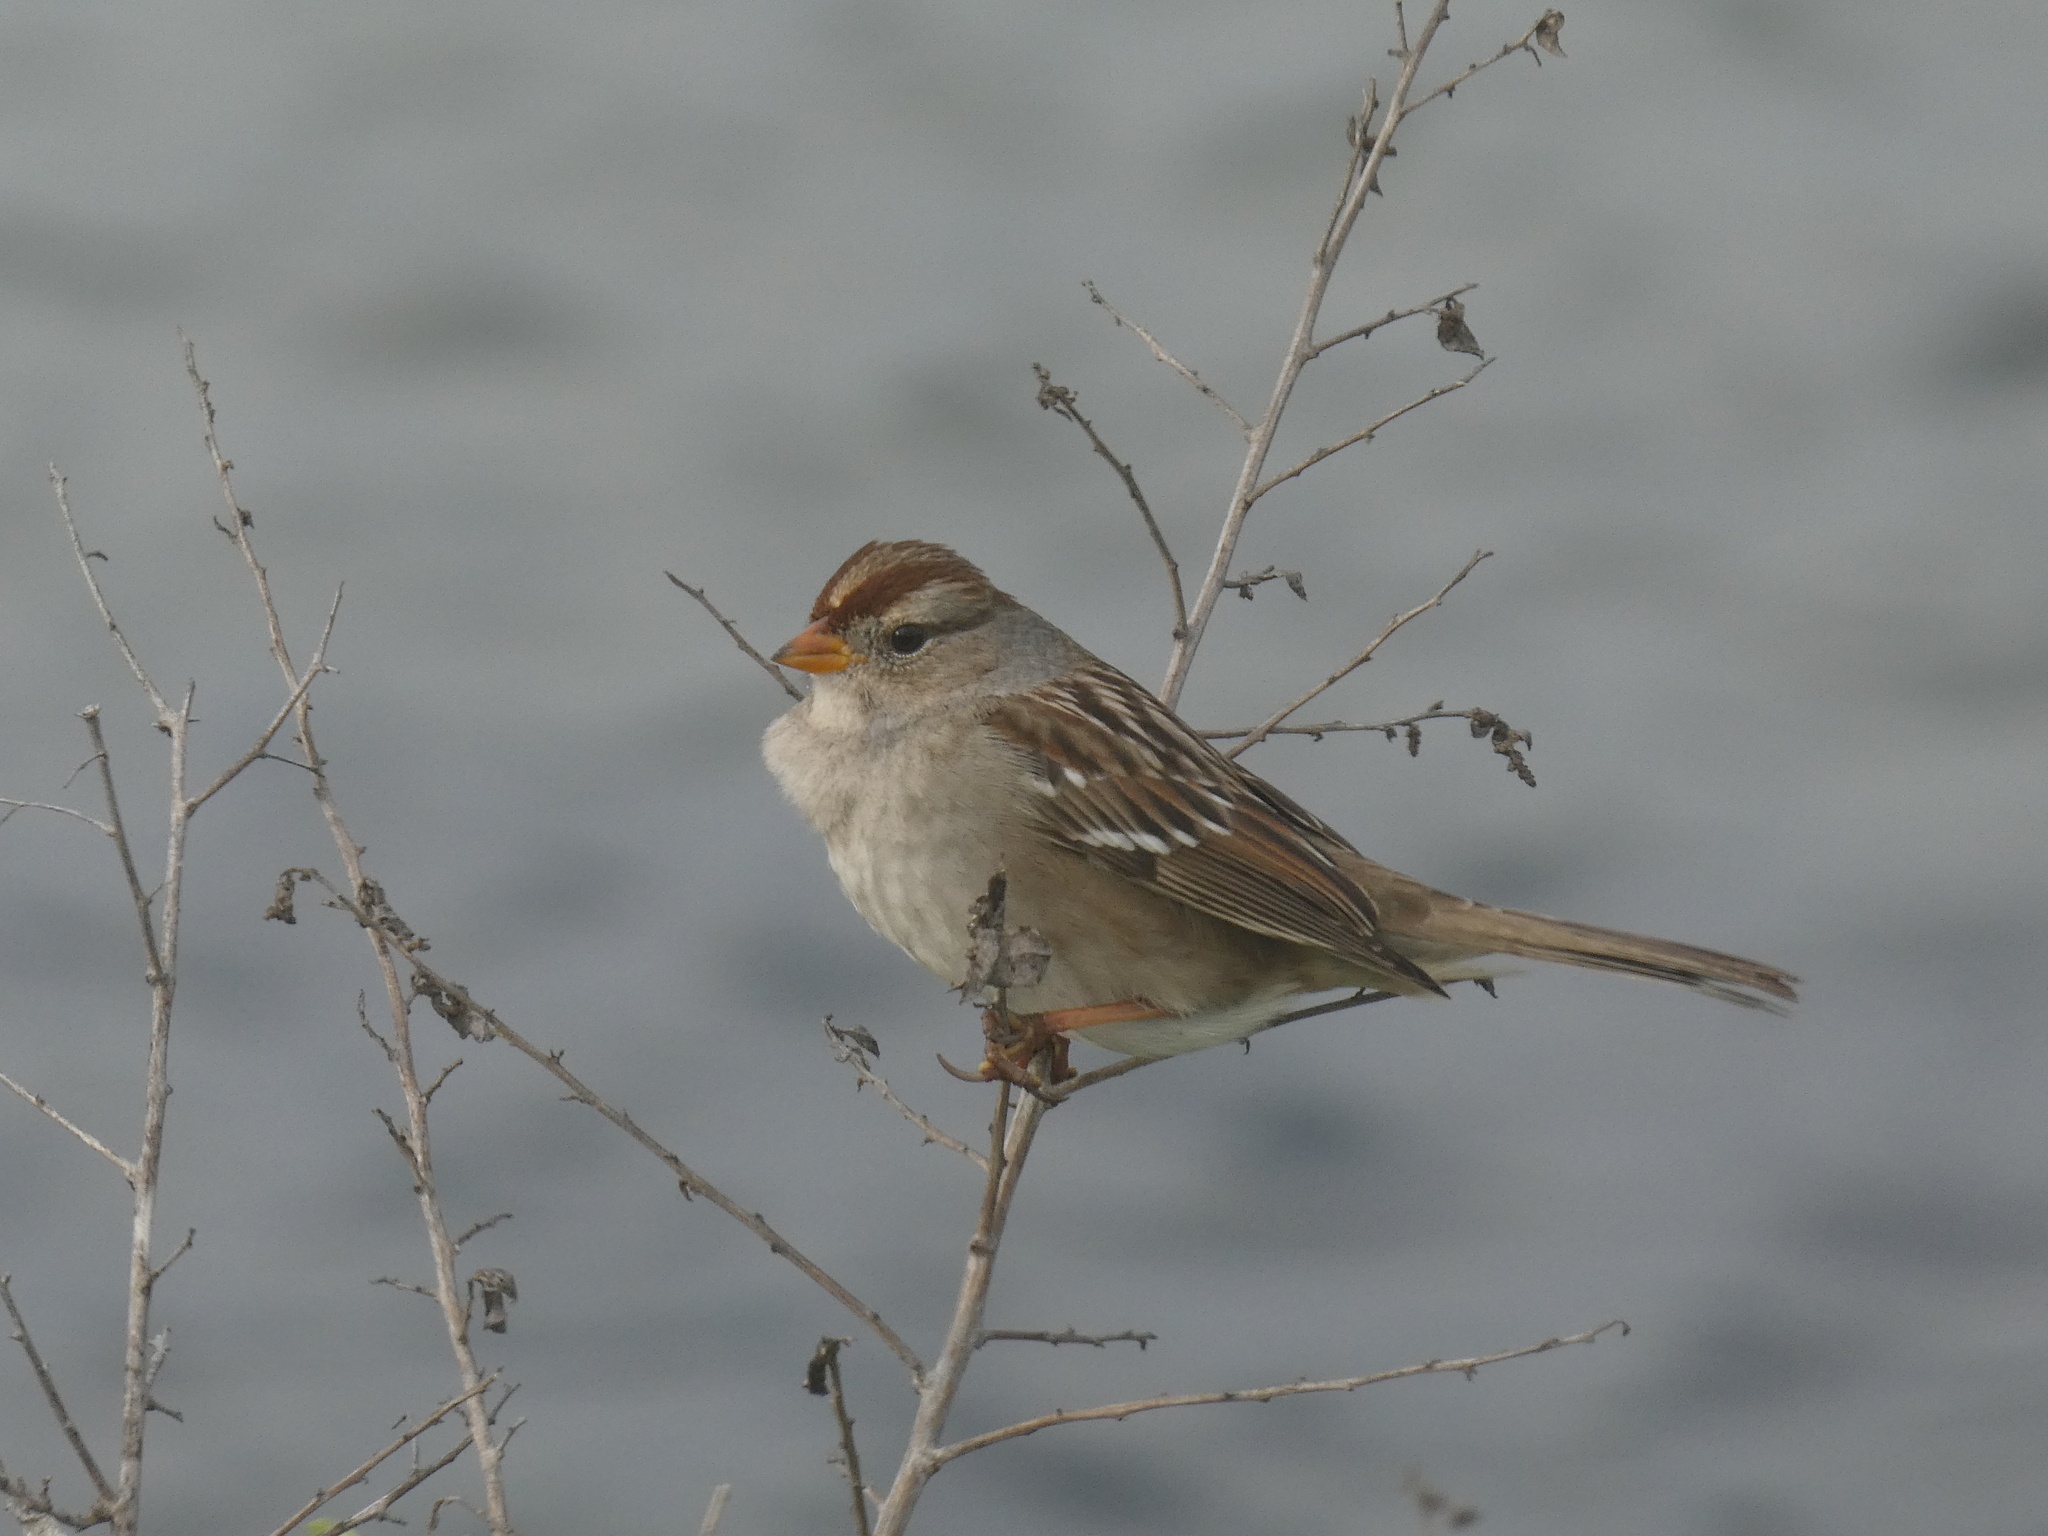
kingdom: Animalia
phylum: Chordata
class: Aves
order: Passeriformes
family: Passerellidae
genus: Zonotrichia
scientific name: Zonotrichia leucophrys
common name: White-crowned sparrow
